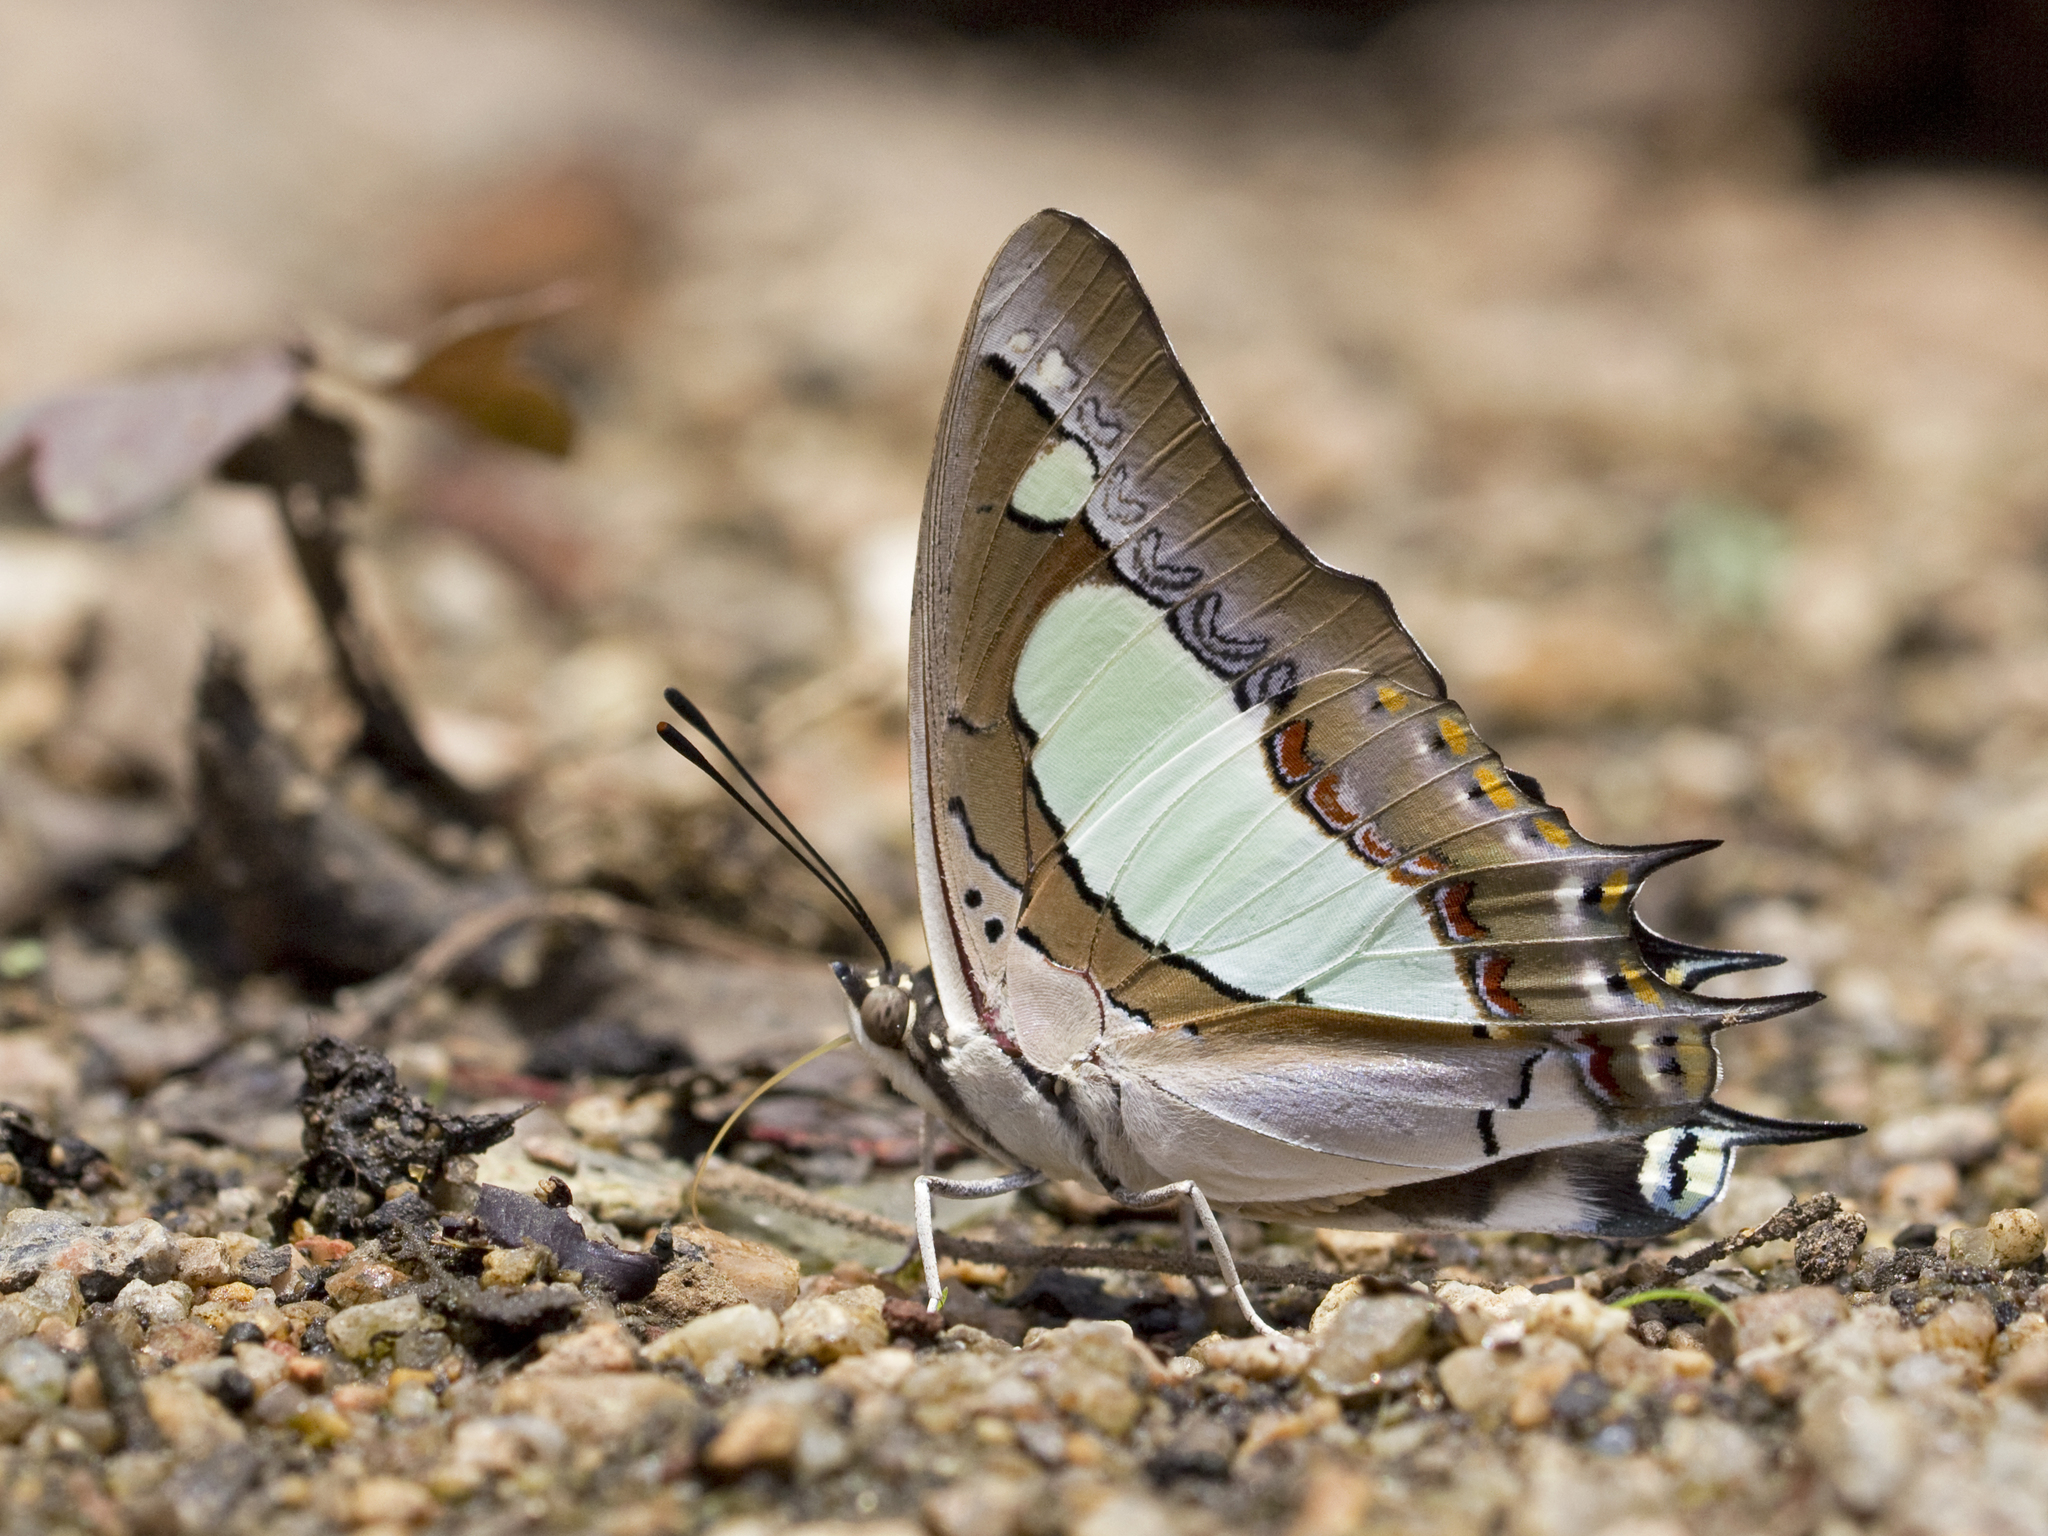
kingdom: Animalia
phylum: Arthropoda
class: Insecta
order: Lepidoptera
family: Nymphalidae
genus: Polyura
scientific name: Polyura agrarius
